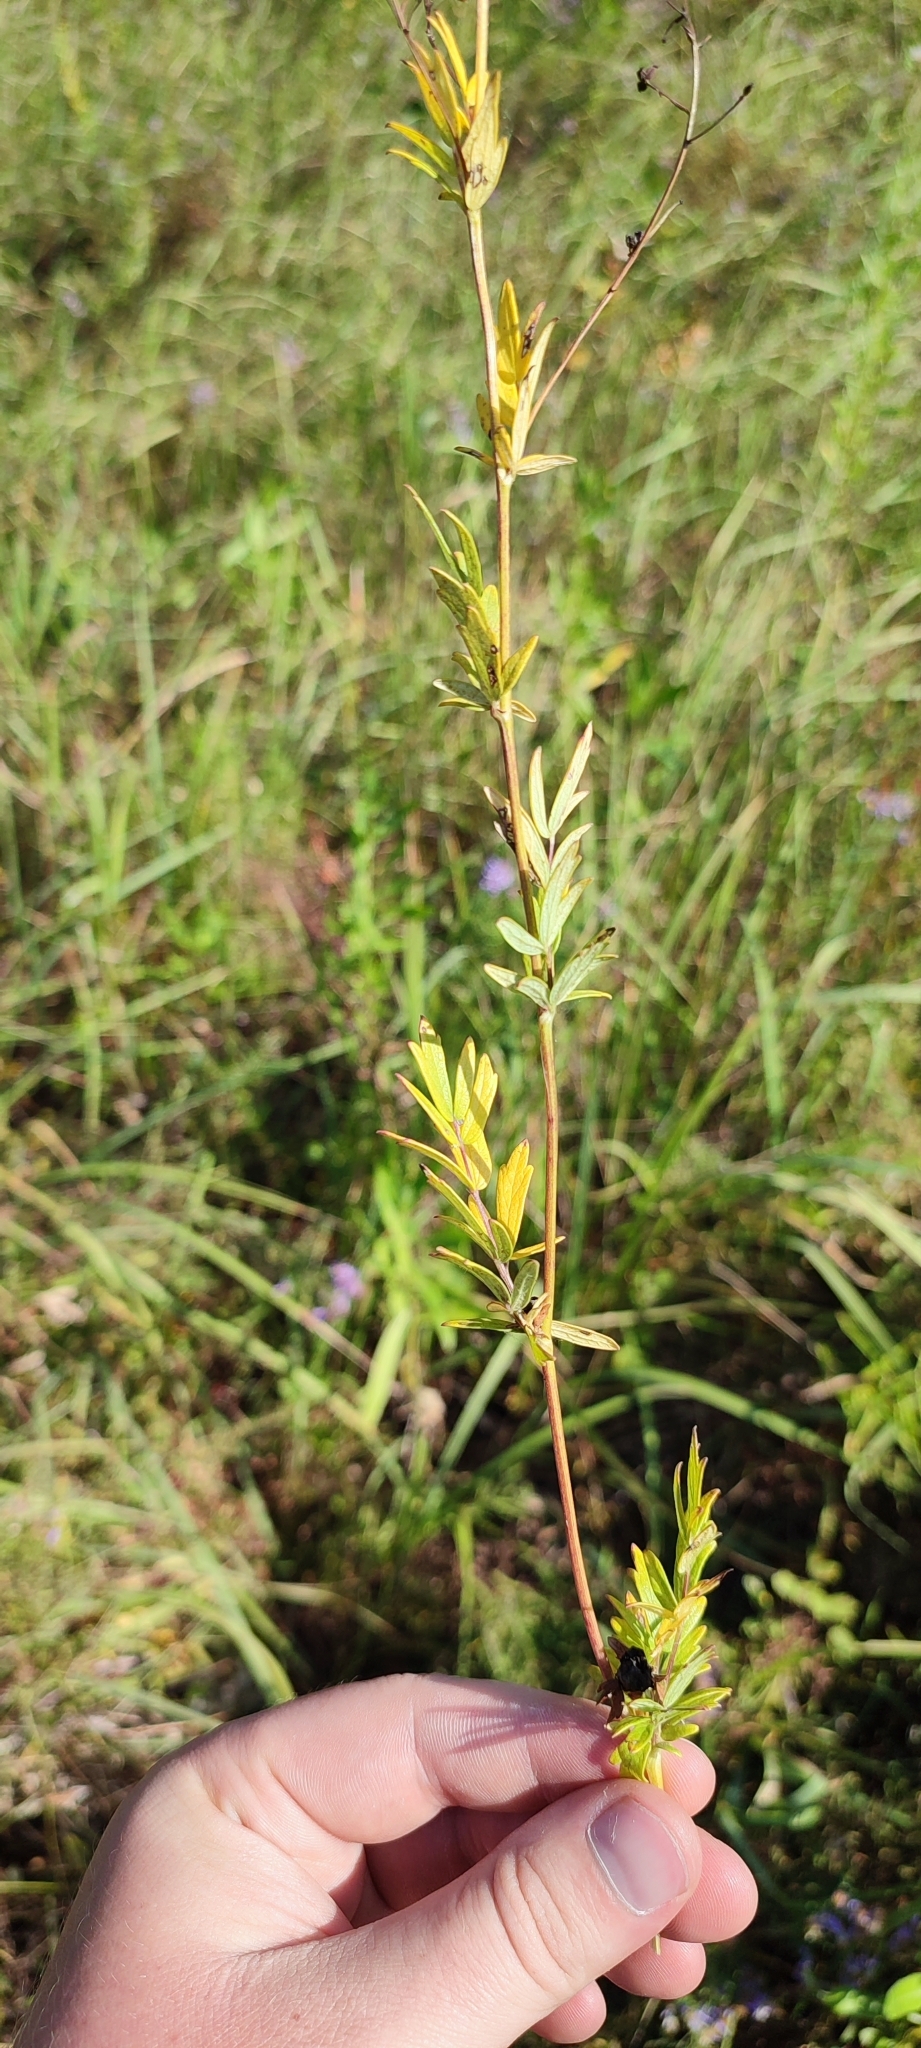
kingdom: Plantae
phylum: Tracheophyta
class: Magnoliopsida
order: Ranunculales
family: Ranunculaceae
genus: Thalictrum
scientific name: Thalictrum simplex
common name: Small meadow-rue
